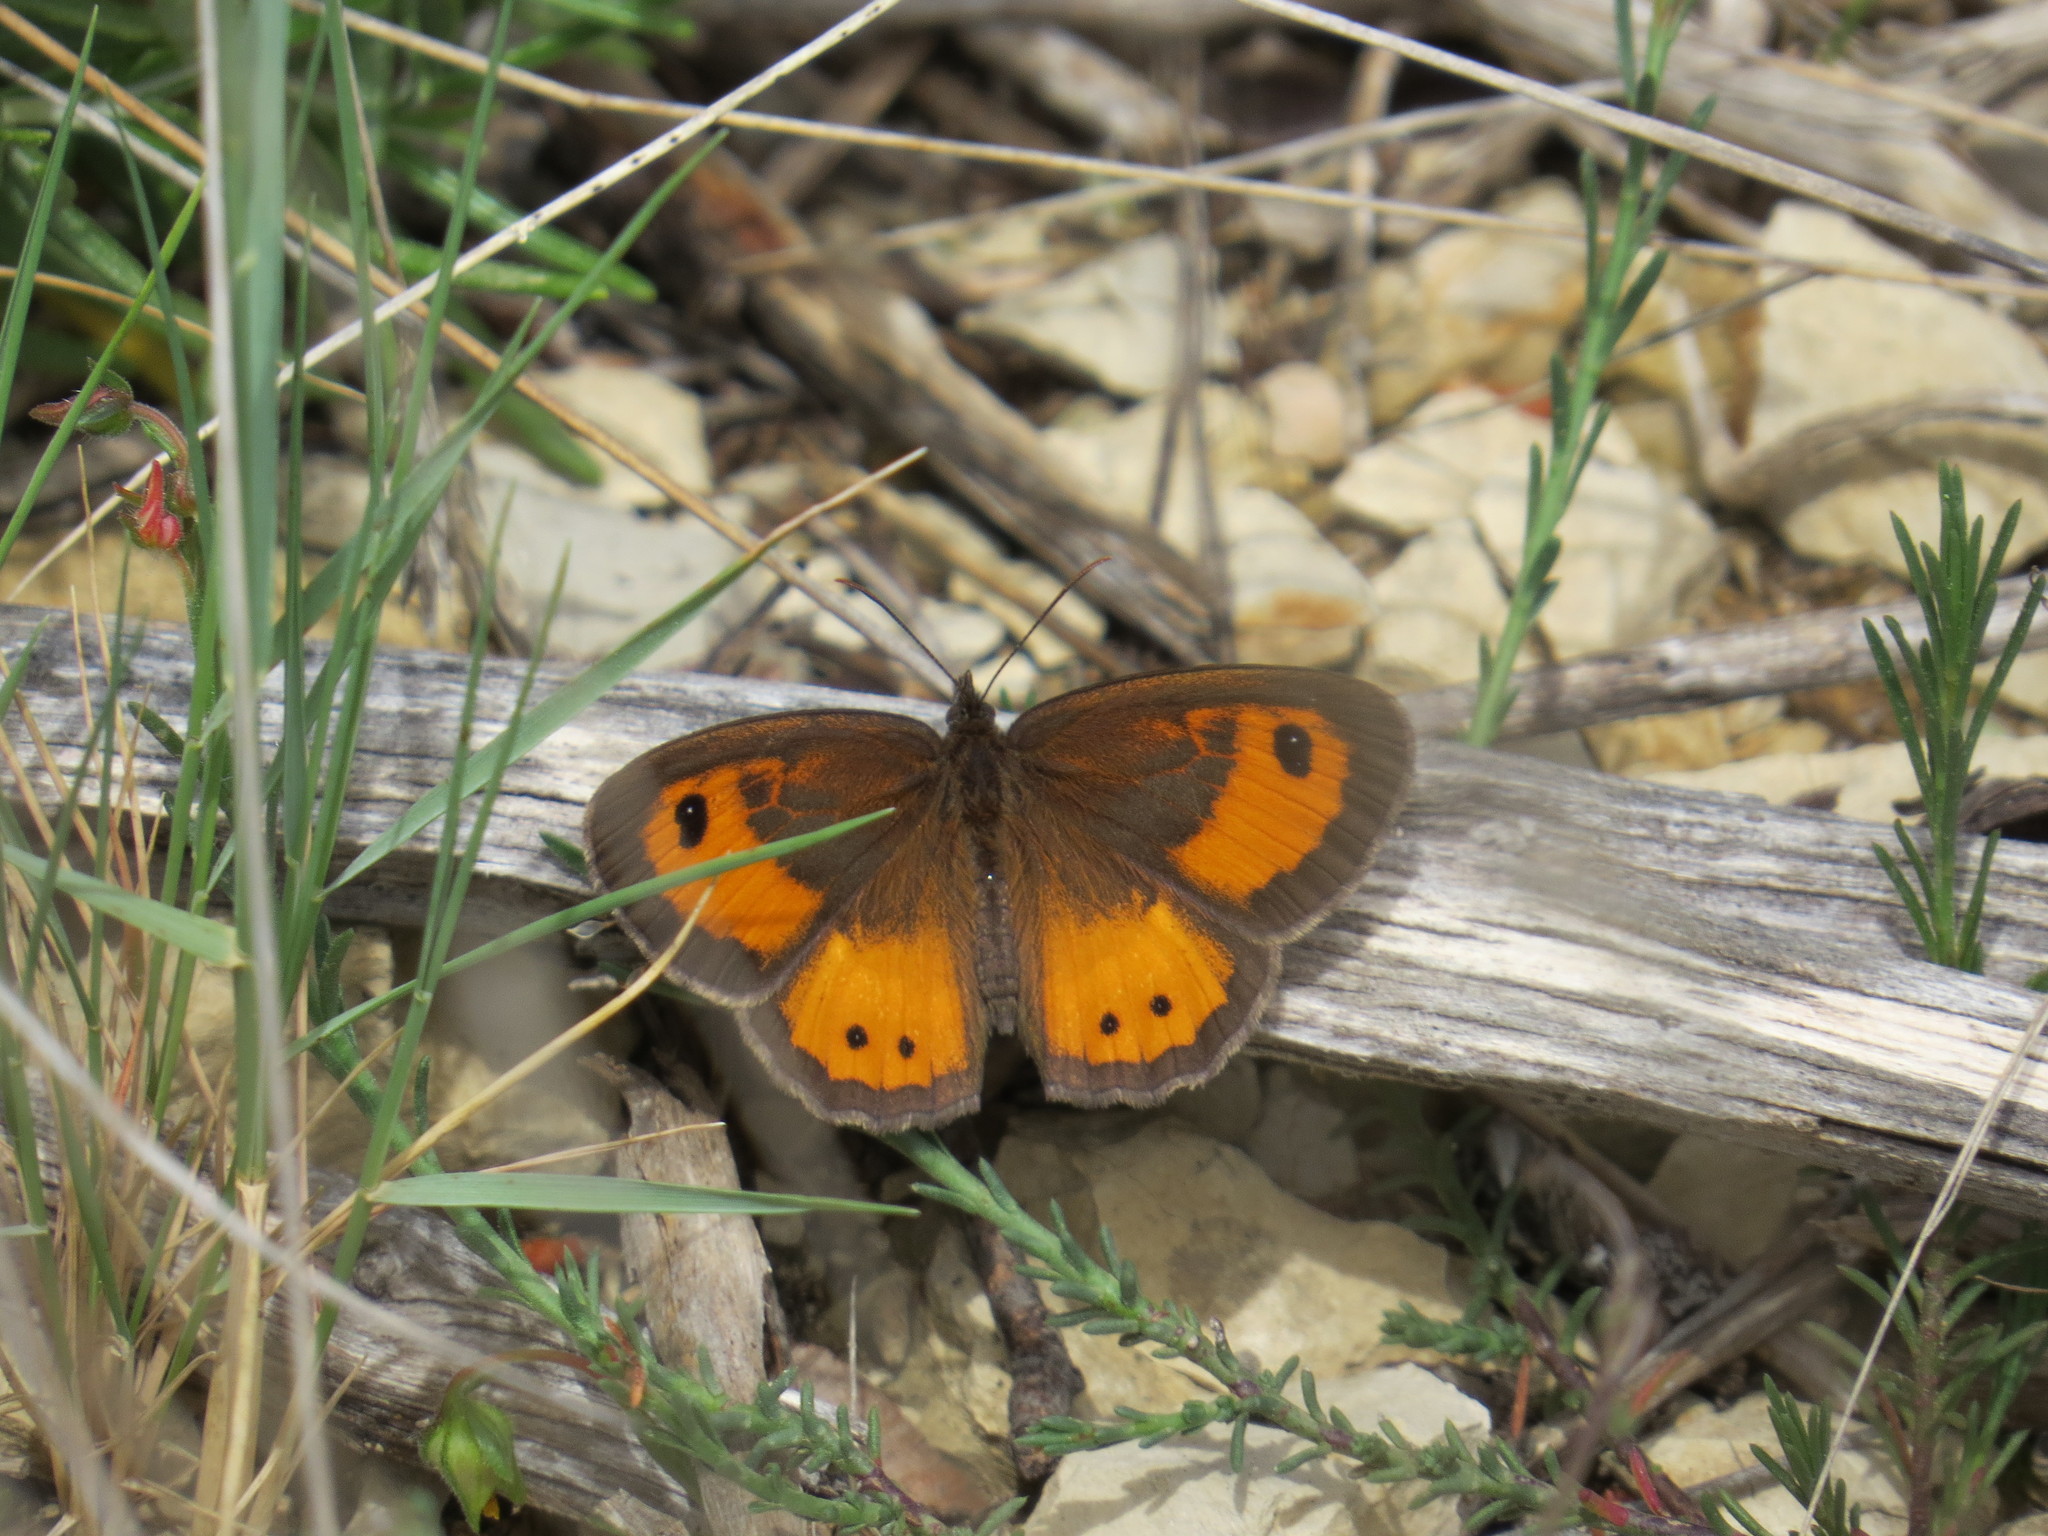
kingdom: Animalia
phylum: Arthropoda
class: Insecta
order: Lepidoptera
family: Nymphalidae
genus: Pyronia
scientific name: Pyronia bathseba
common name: Spanish gatekeeper
